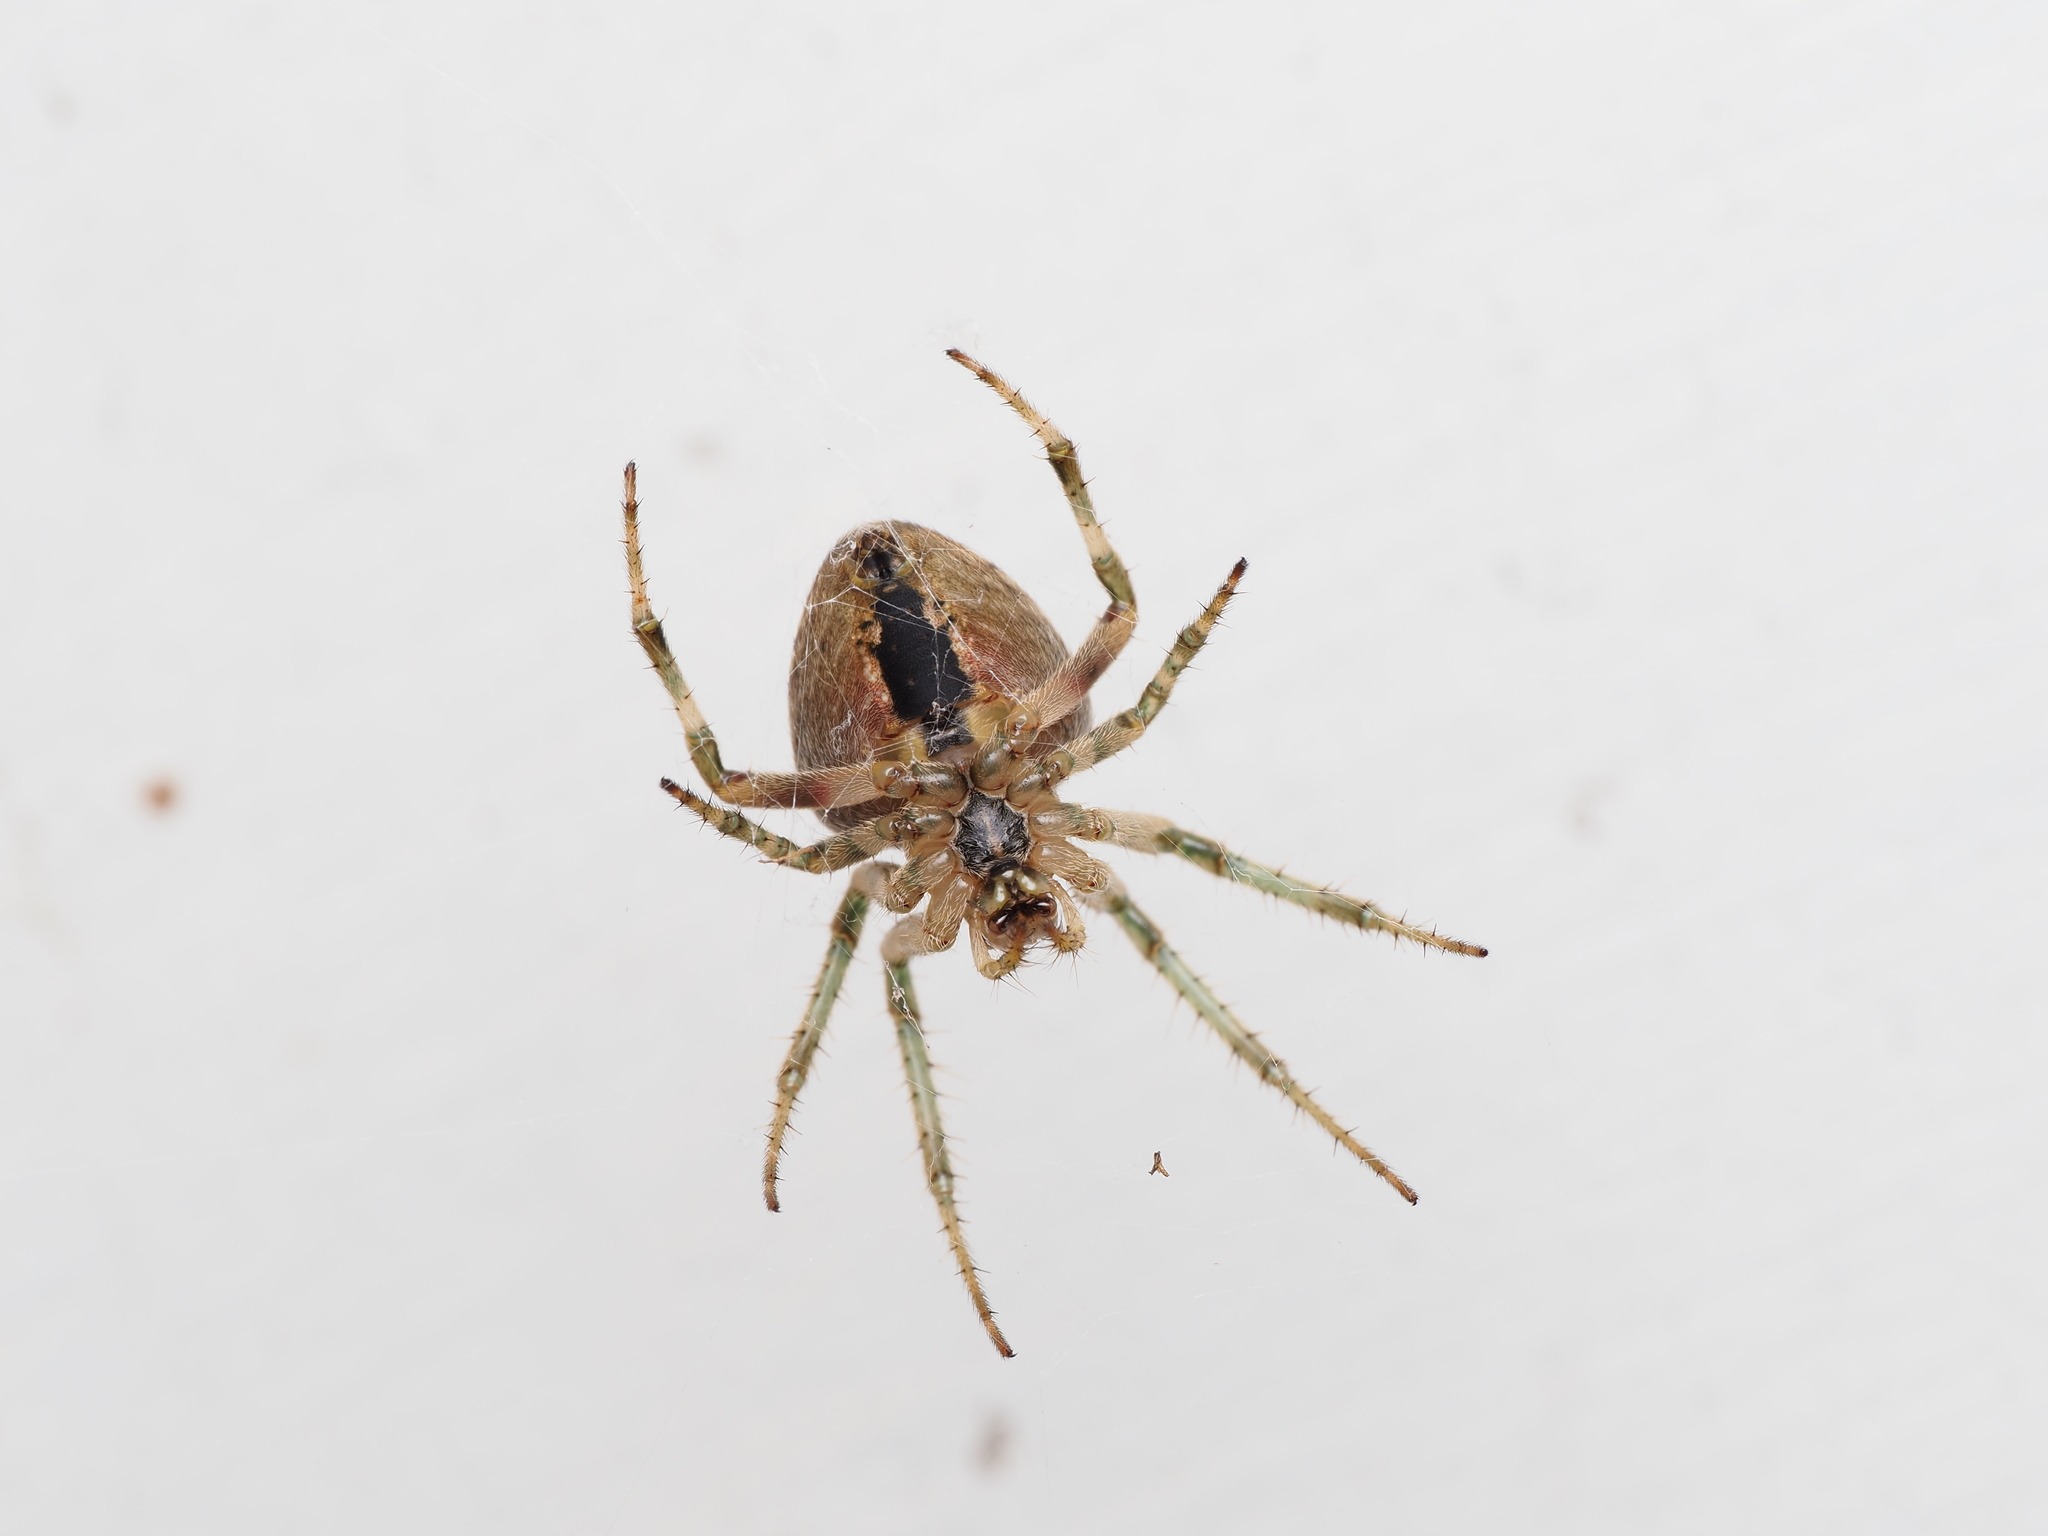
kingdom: Animalia
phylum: Arthropoda
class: Arachnida
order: Araneae
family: Araneidae
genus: Zealaranea
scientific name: Zealaranea crassa
